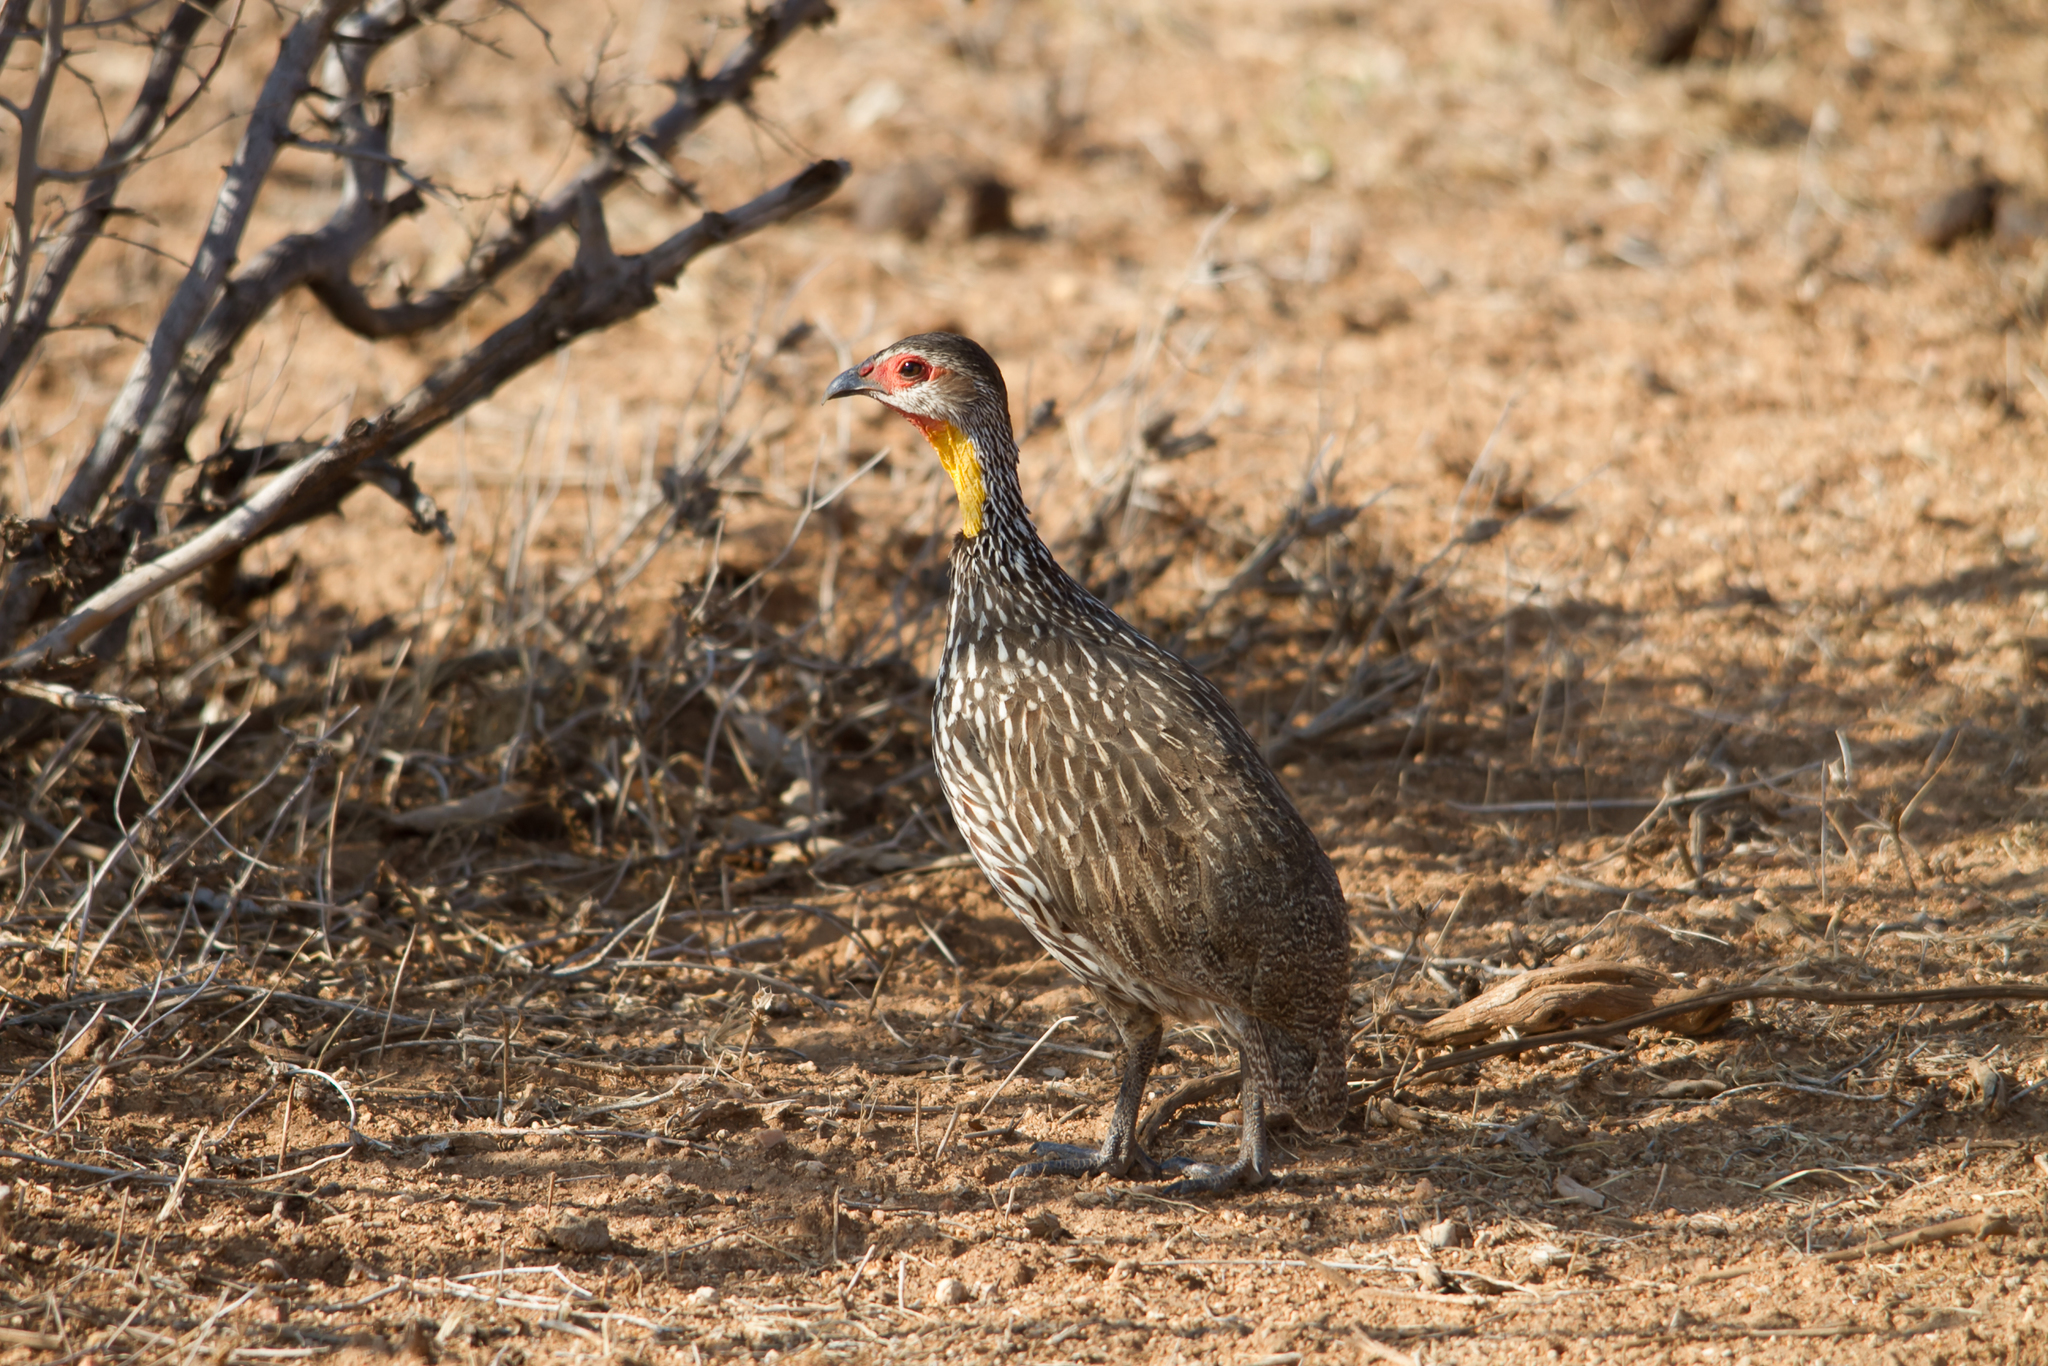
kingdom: Animalia
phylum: Chordata
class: Aves
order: Galliformes
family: Phasianidae
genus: Pternistis
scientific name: Pternistis leucoscepus
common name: Yellow-necked spurfowl
